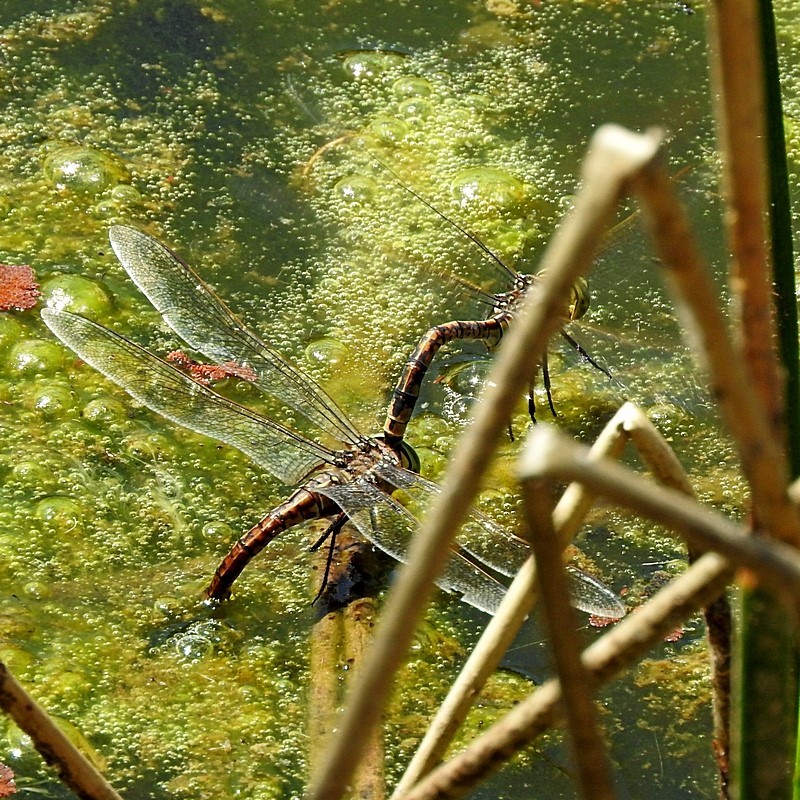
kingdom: Animalia
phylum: Arthropoda
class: Insecta
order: Odonata
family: Aeshnidae
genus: Anax
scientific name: Anax papuensis
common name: Australian emperor
